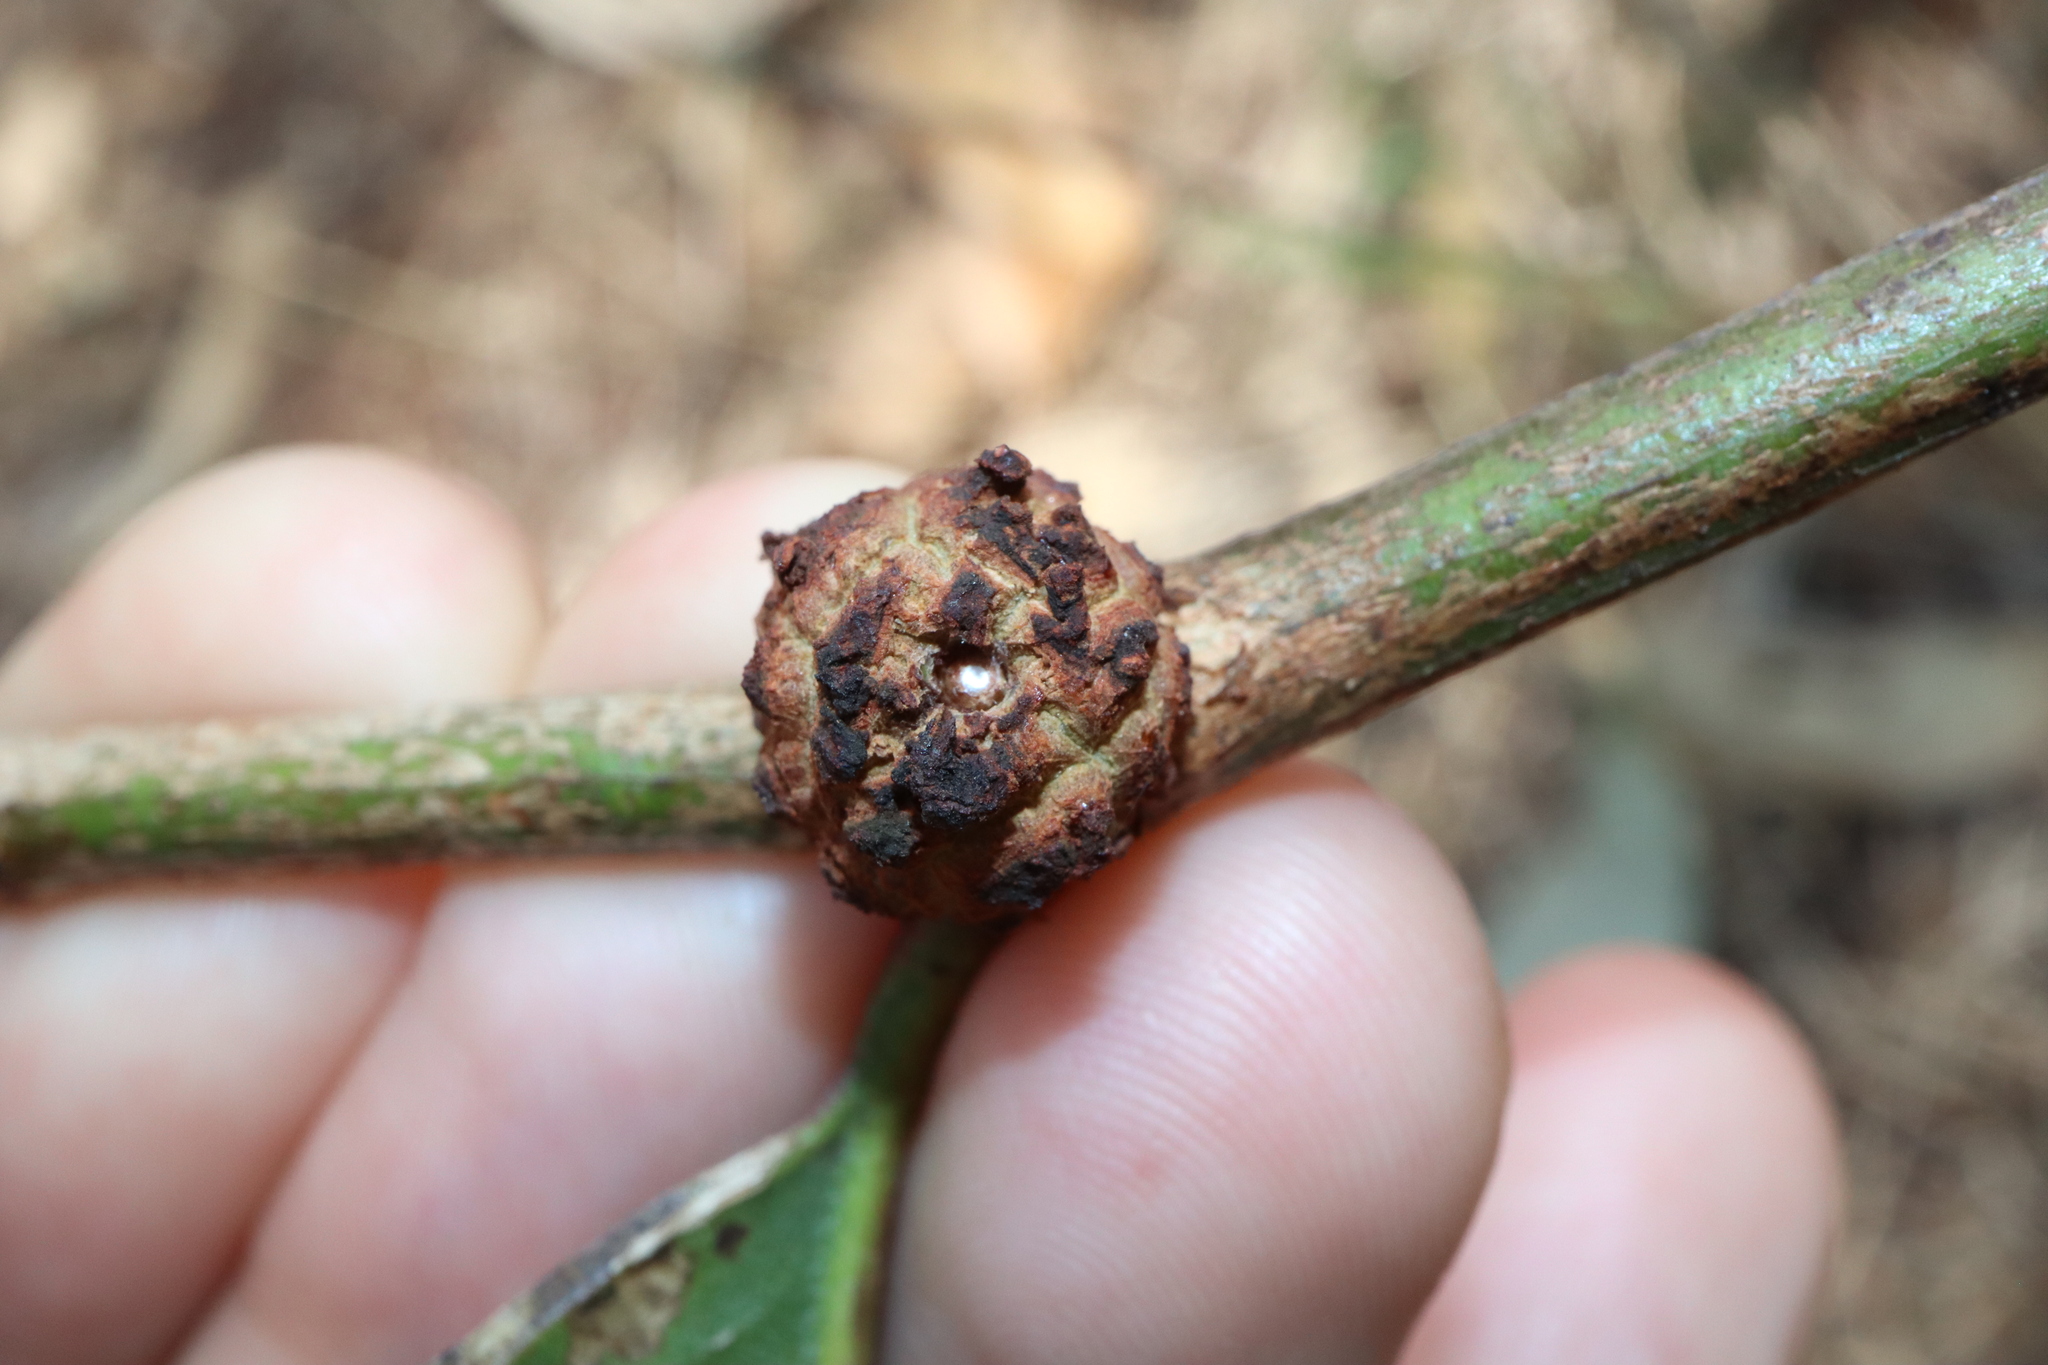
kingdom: Animalia
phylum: Arthropoda
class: Insecta
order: Hemiptera
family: Eriococcidae
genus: Apiomorpha
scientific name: Apiomorpha strombylosa
